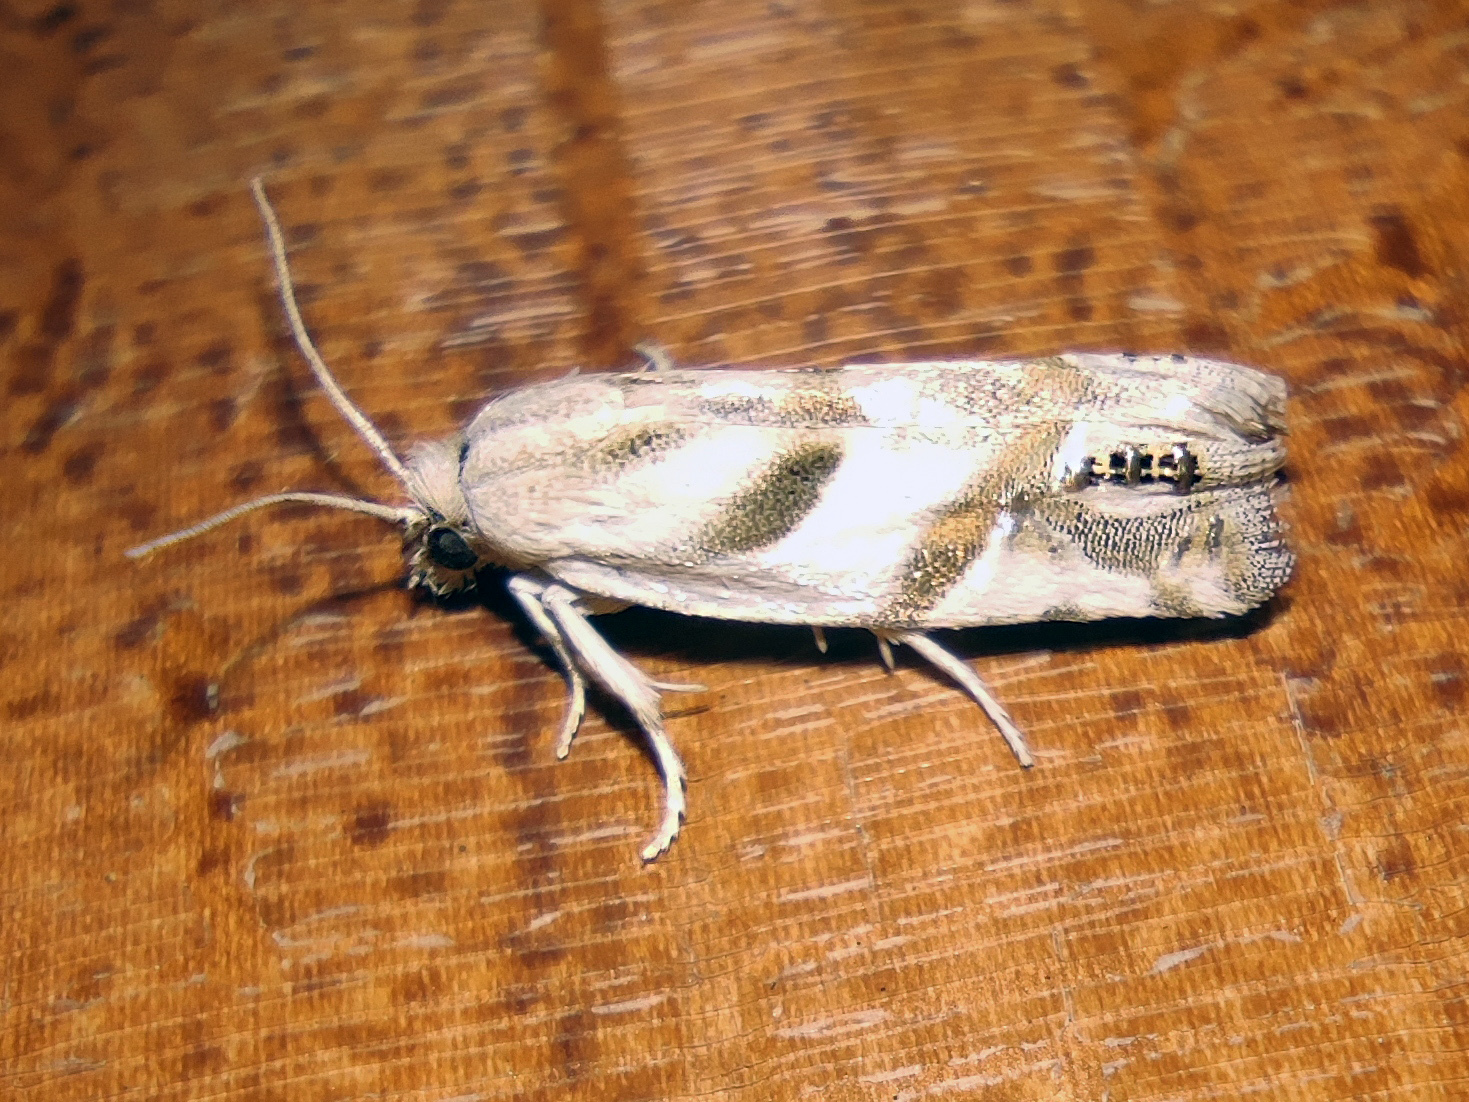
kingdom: Animalia
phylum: Arthropoda
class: Insecta
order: Lepidoptera
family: Tortricidae
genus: Eucosma
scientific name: Eucosma pupillana
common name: Eyed bell
